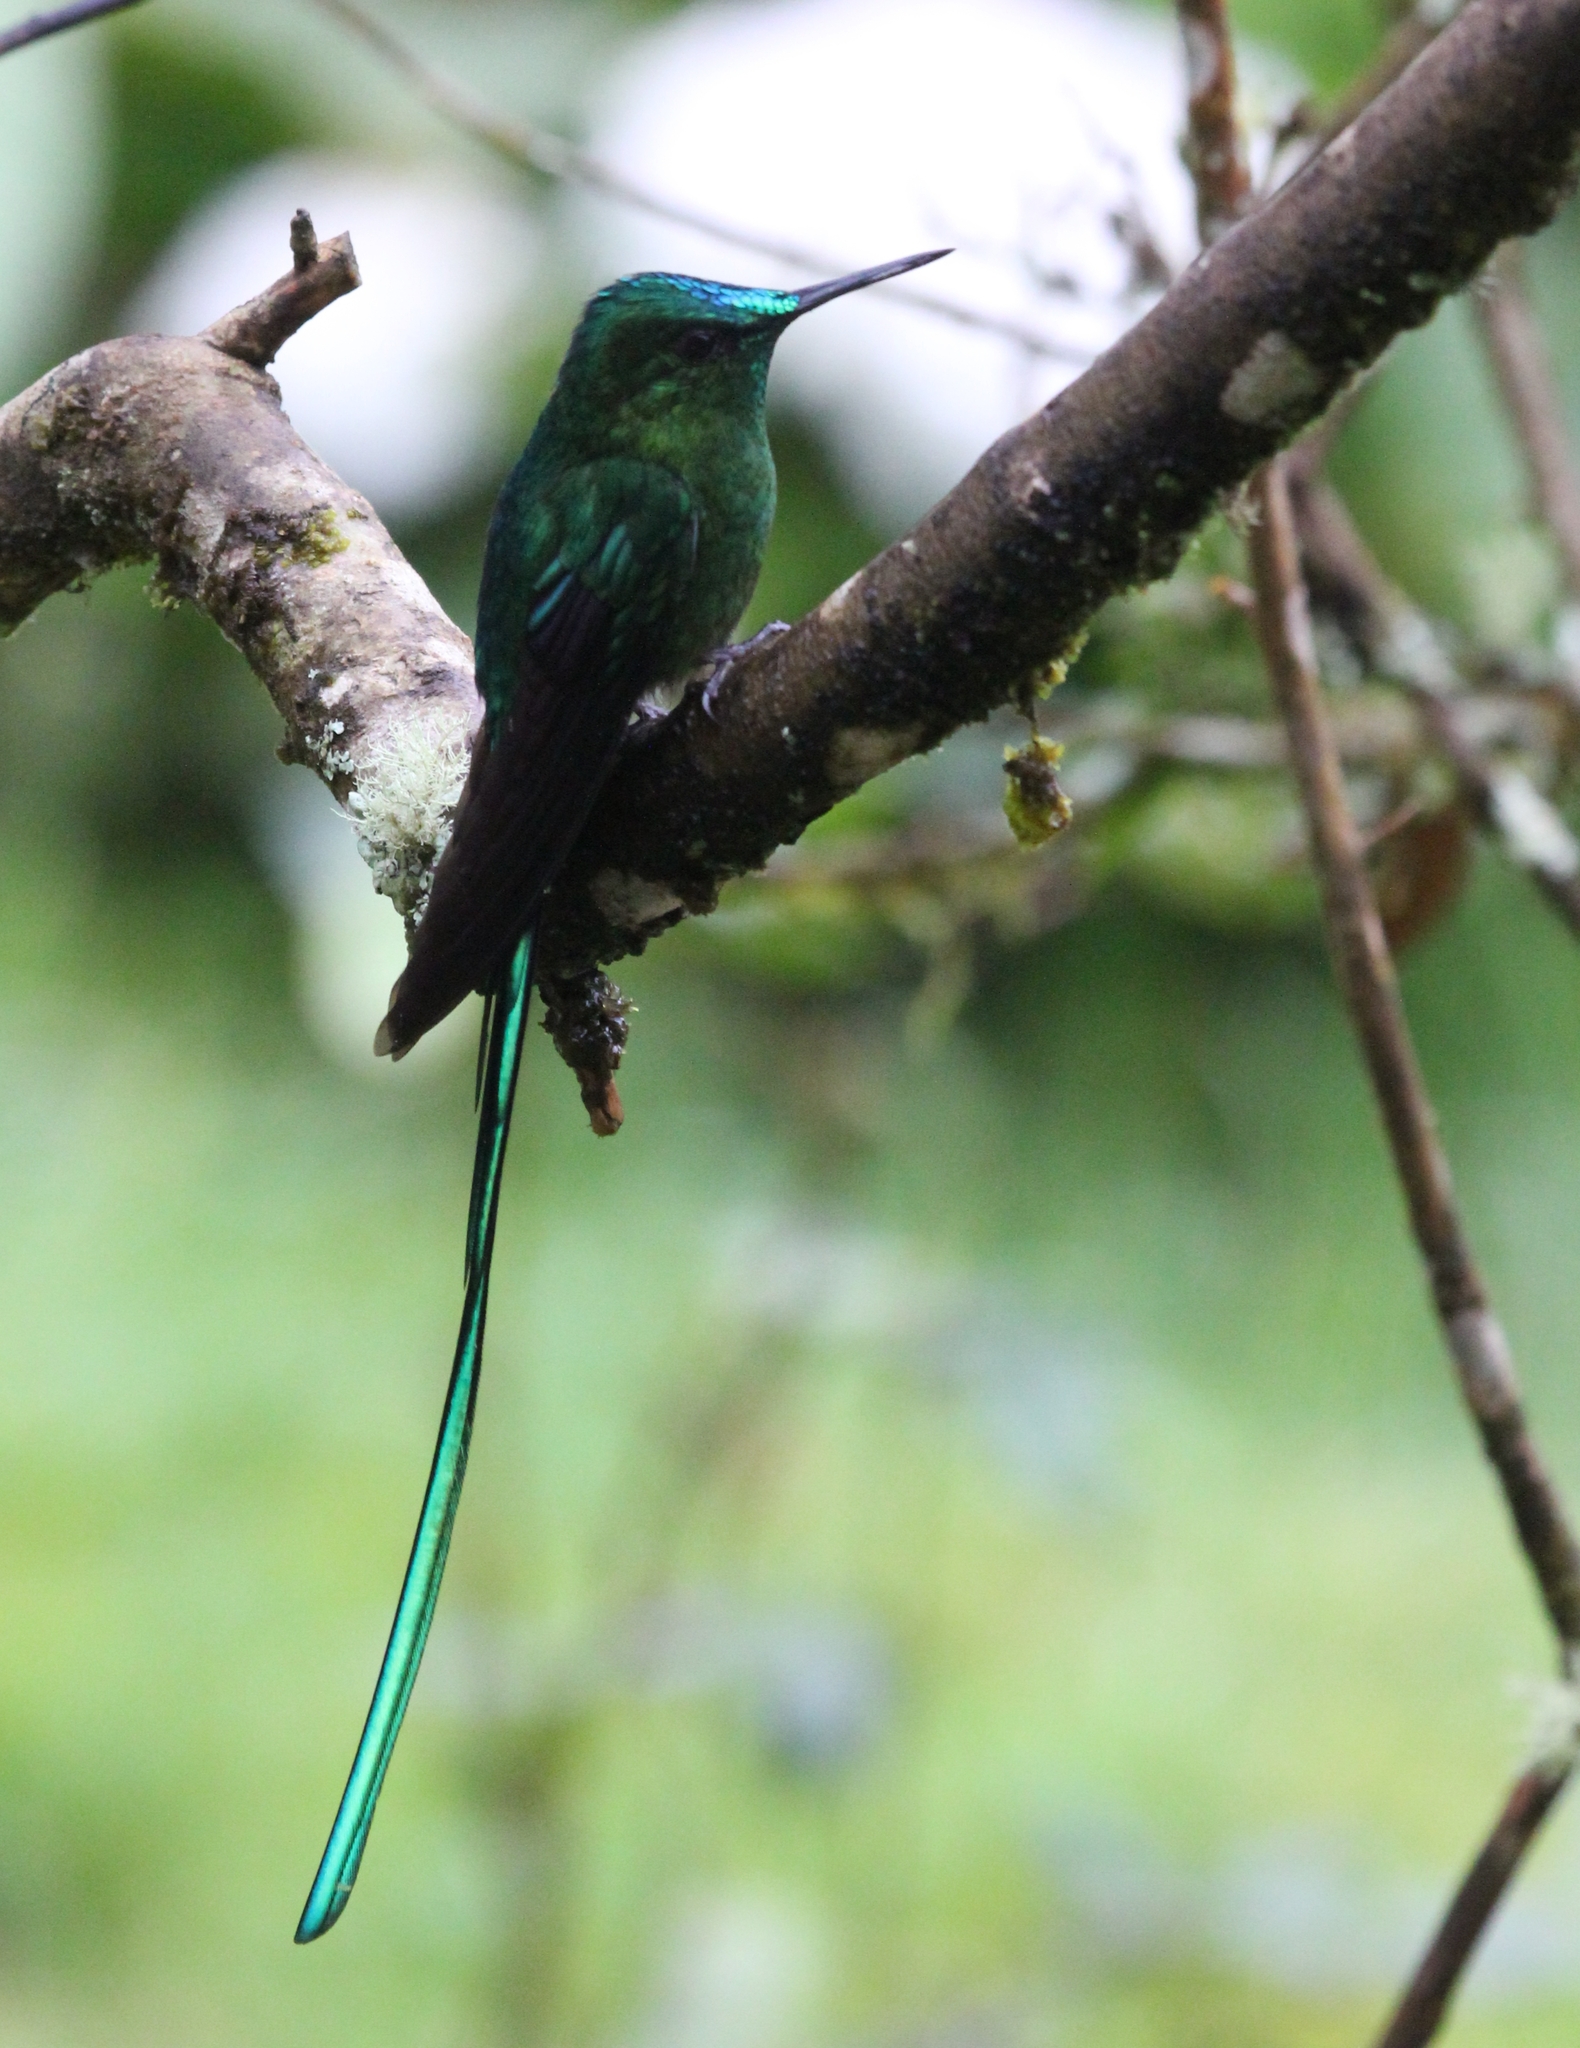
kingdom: Animalia
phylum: Chordata
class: Aves
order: Apodiformes
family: Trochilidae
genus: Aglaiocercus
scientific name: Aglaiocercus kingii
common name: Long-tailed sylph
